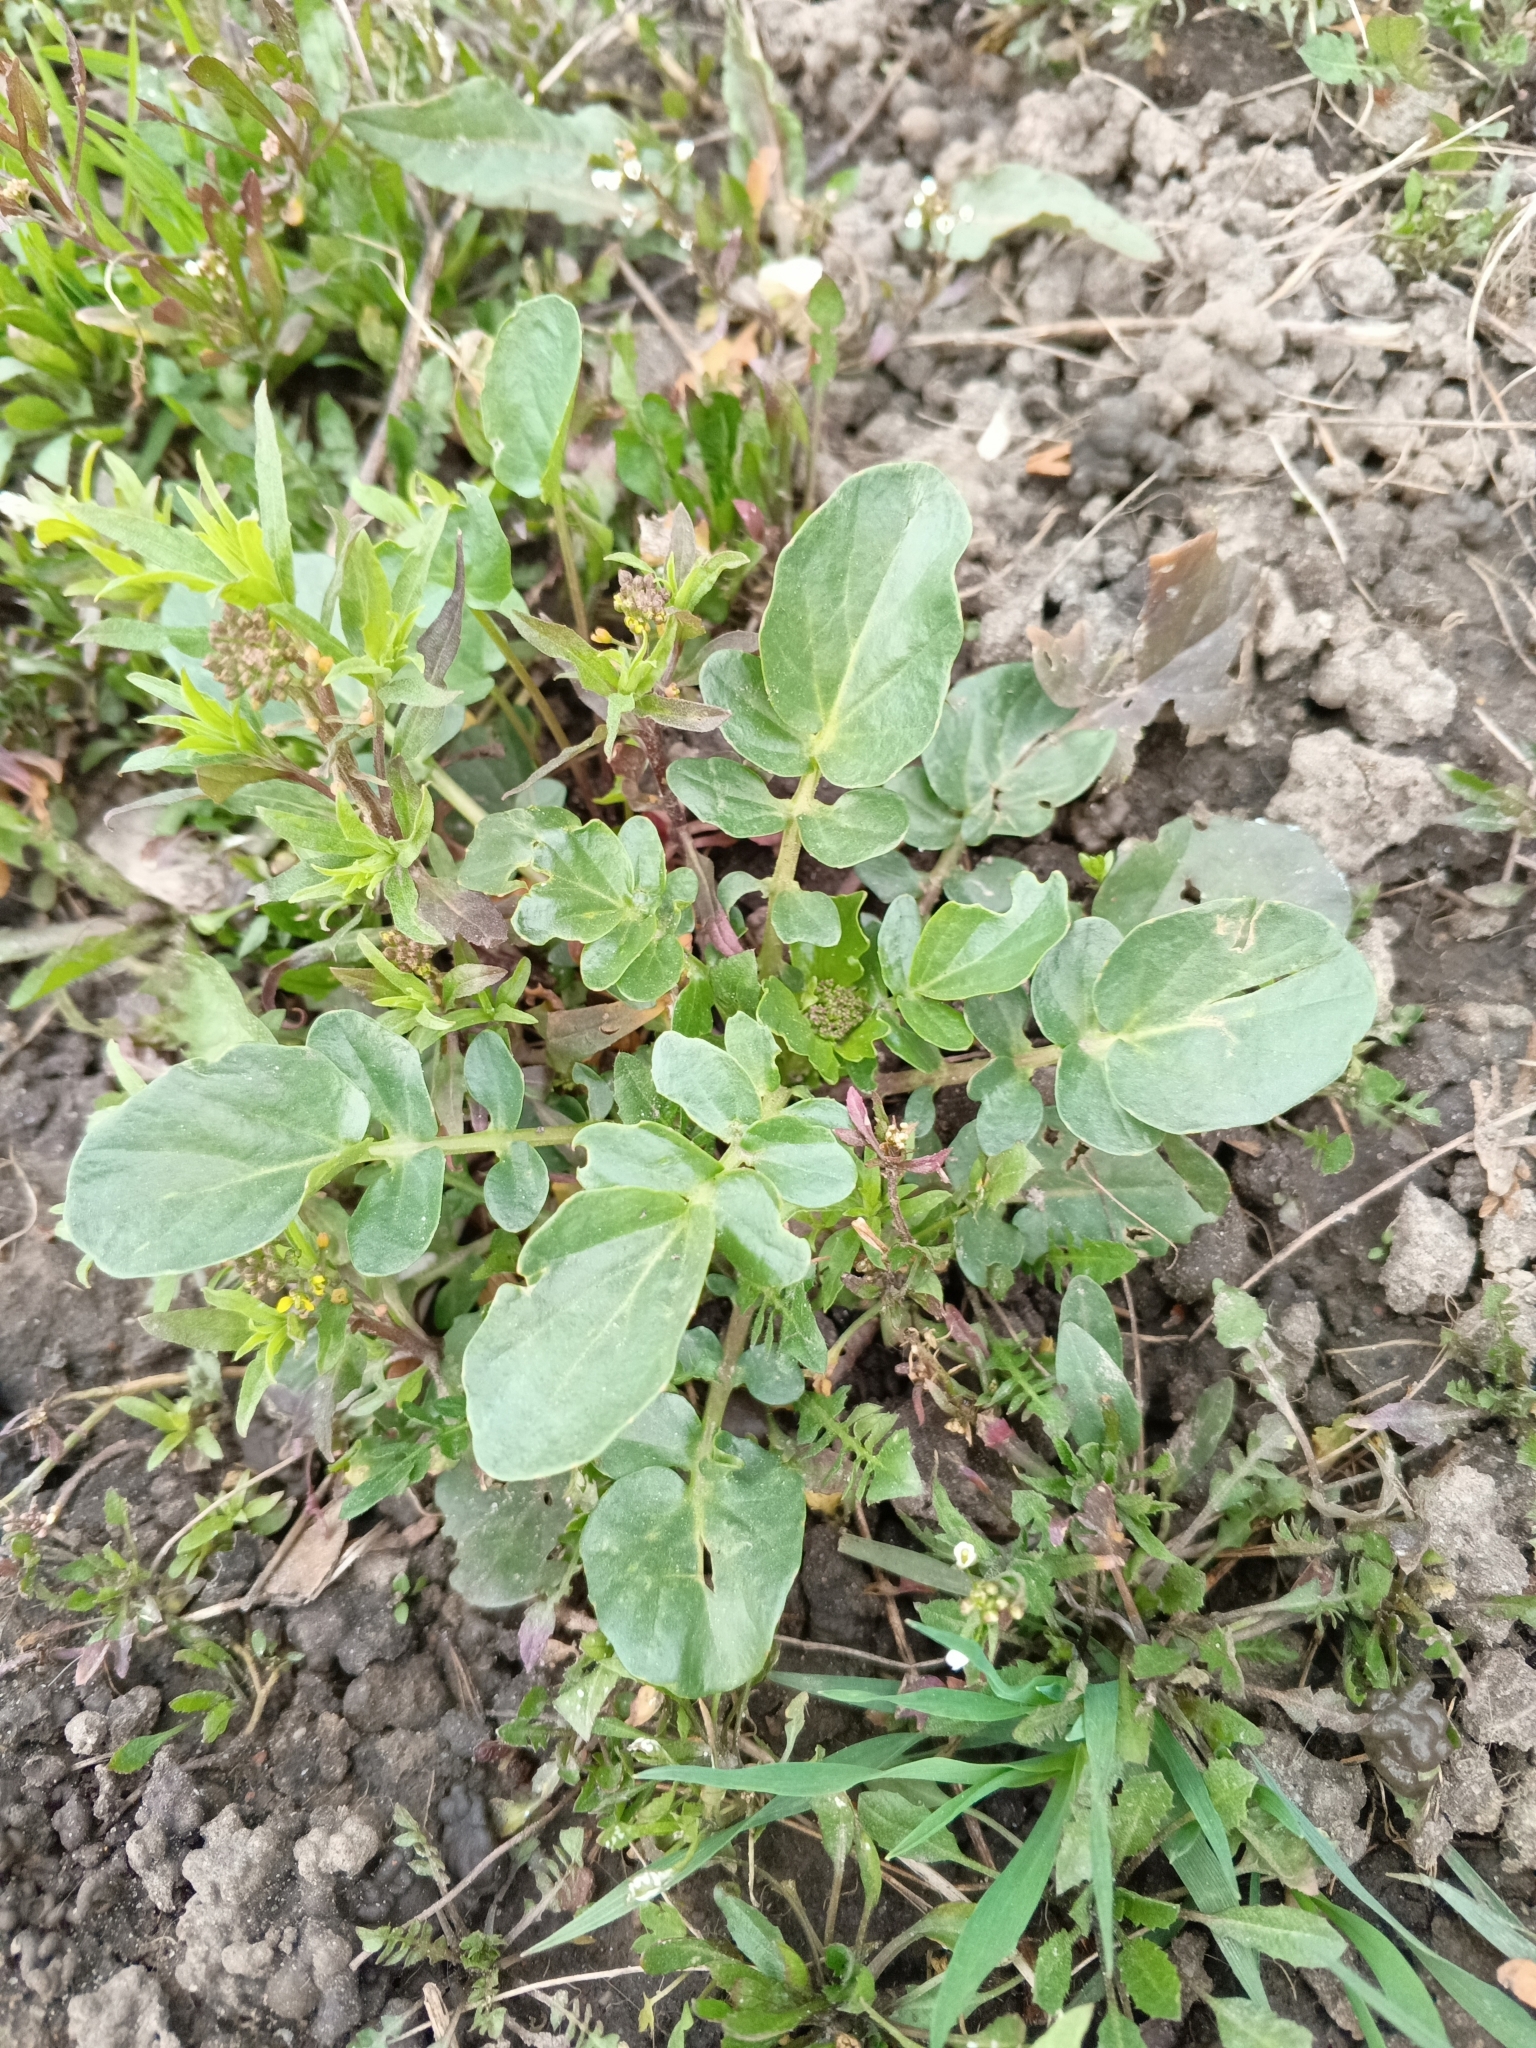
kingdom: Plantae
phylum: Tracheophyta
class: Magnoliopsida
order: Brassicales
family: Brassicaceae
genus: Barbarea
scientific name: Barbarea vulgaris
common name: Cressy-greens
